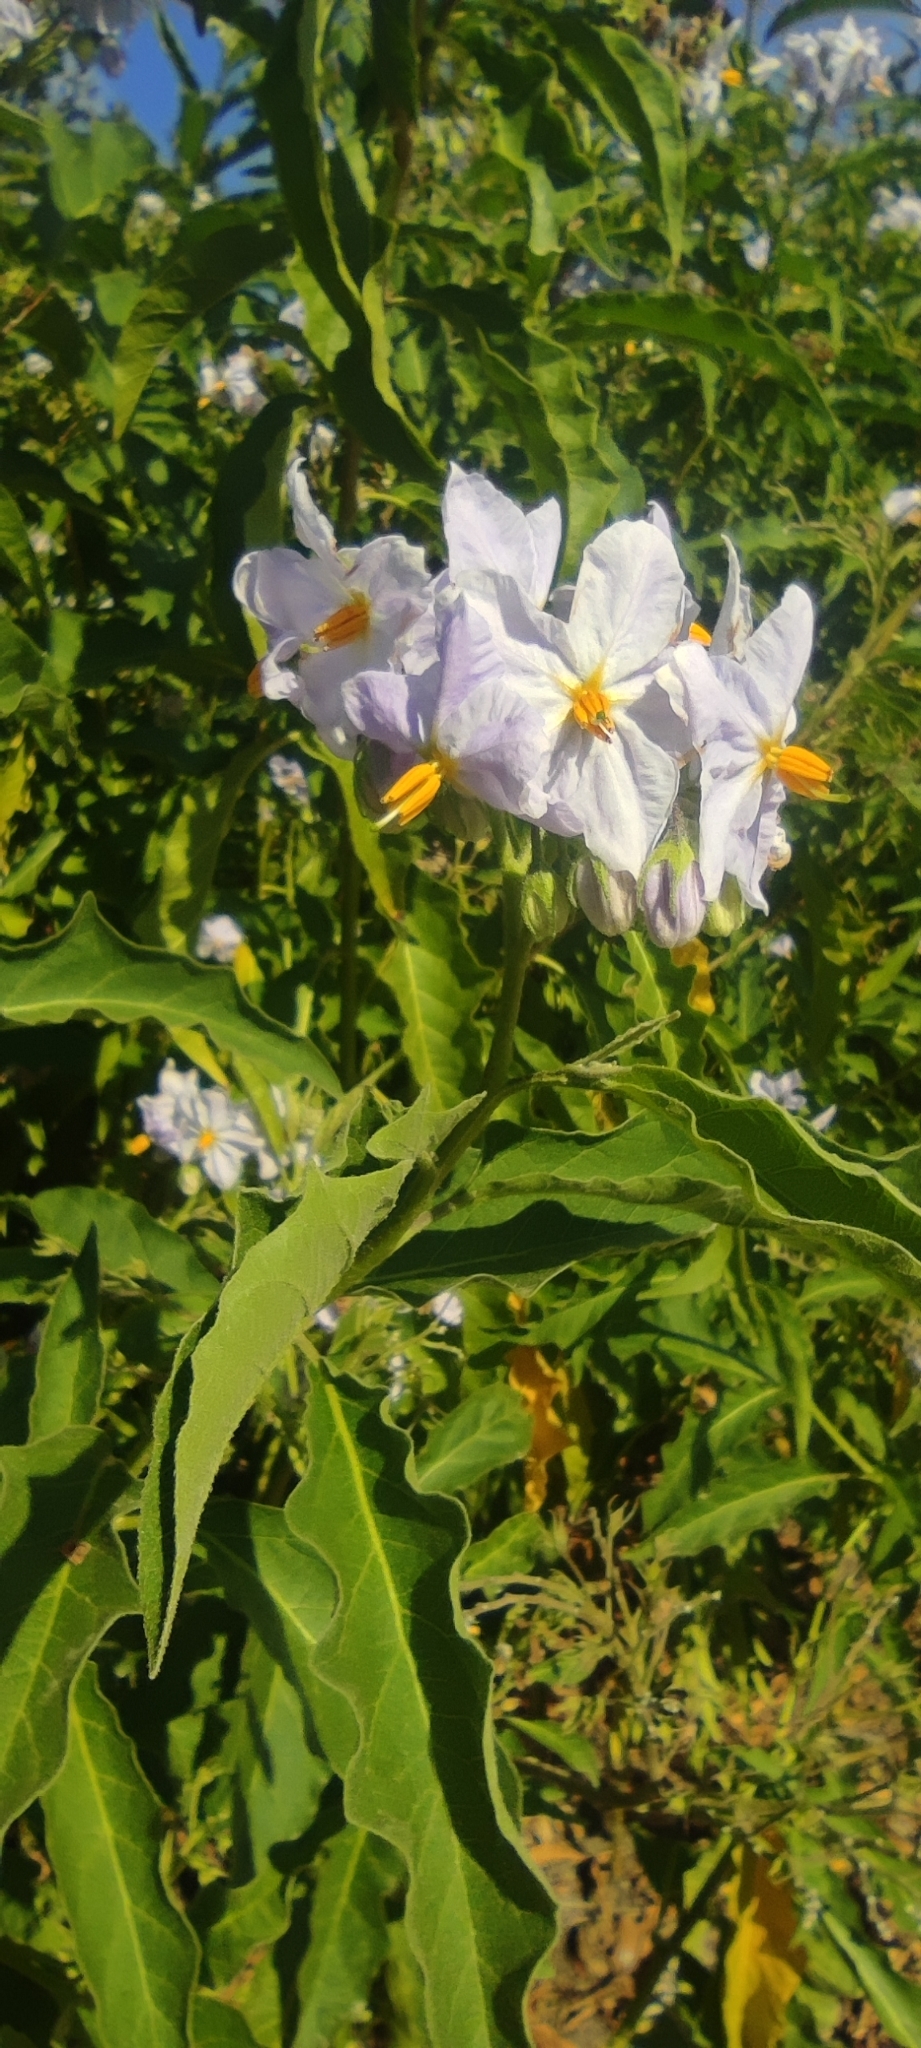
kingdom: Plantae
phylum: Tracheophyta
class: Magnoliopsida
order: Solanales
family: Solanaceae
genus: Solanum
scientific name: Solanum bonariense
